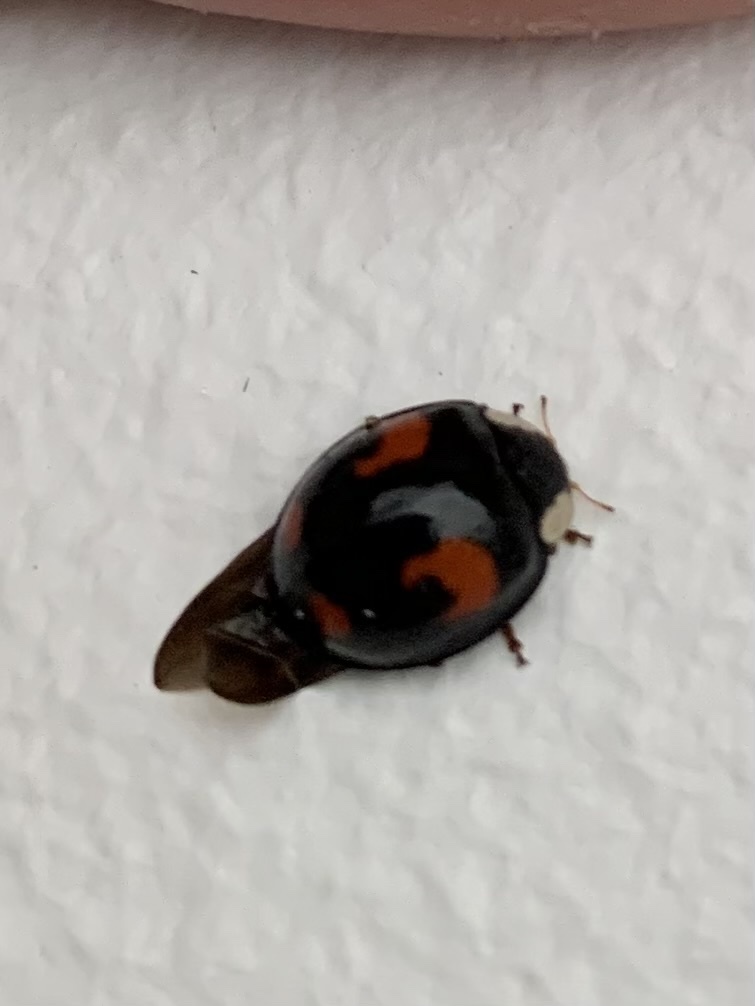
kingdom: Animalia
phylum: Arthropoda
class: Insecta
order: Coleoptera
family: Coccinellidae
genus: Harmonia
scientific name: Harmonia axyridis
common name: Harlequin ladybird
